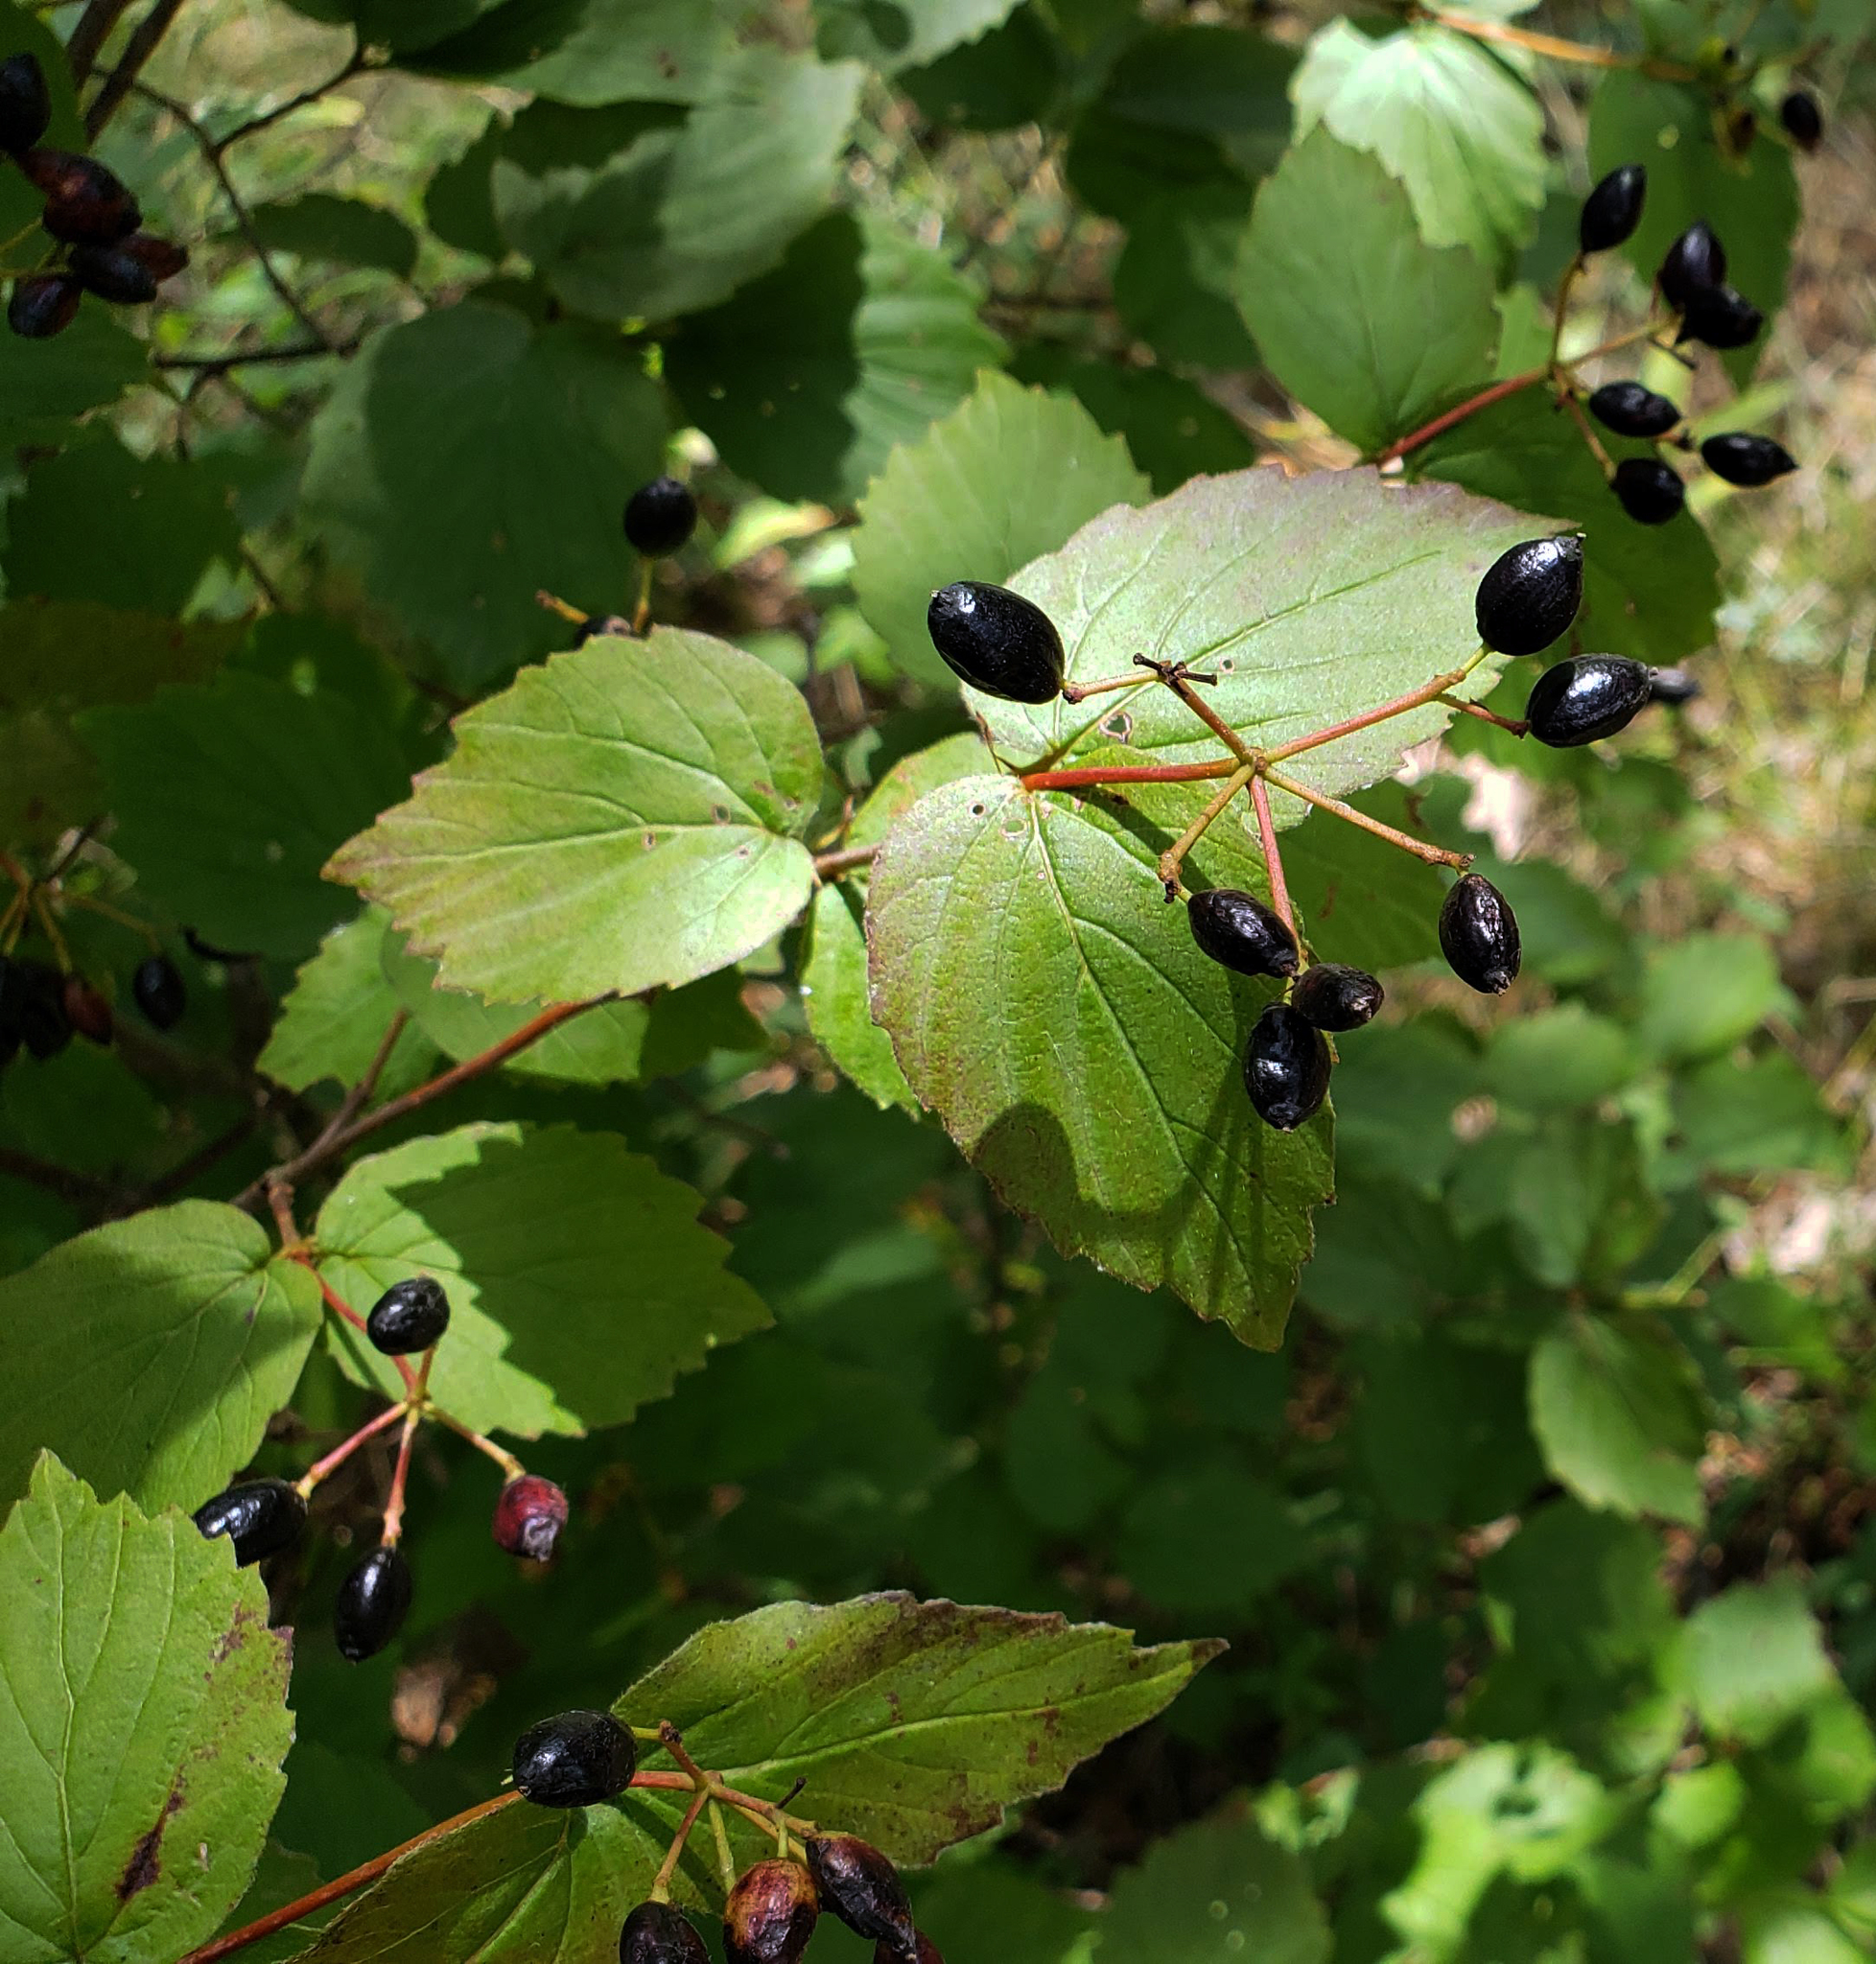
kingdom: Plantae
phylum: Tracheophyta
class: Magnoliopsida
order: Dipsacales
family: Viburnaceae
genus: Viburnum
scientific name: Viburnum rafinesqueanum
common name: Downy arrow-wood
